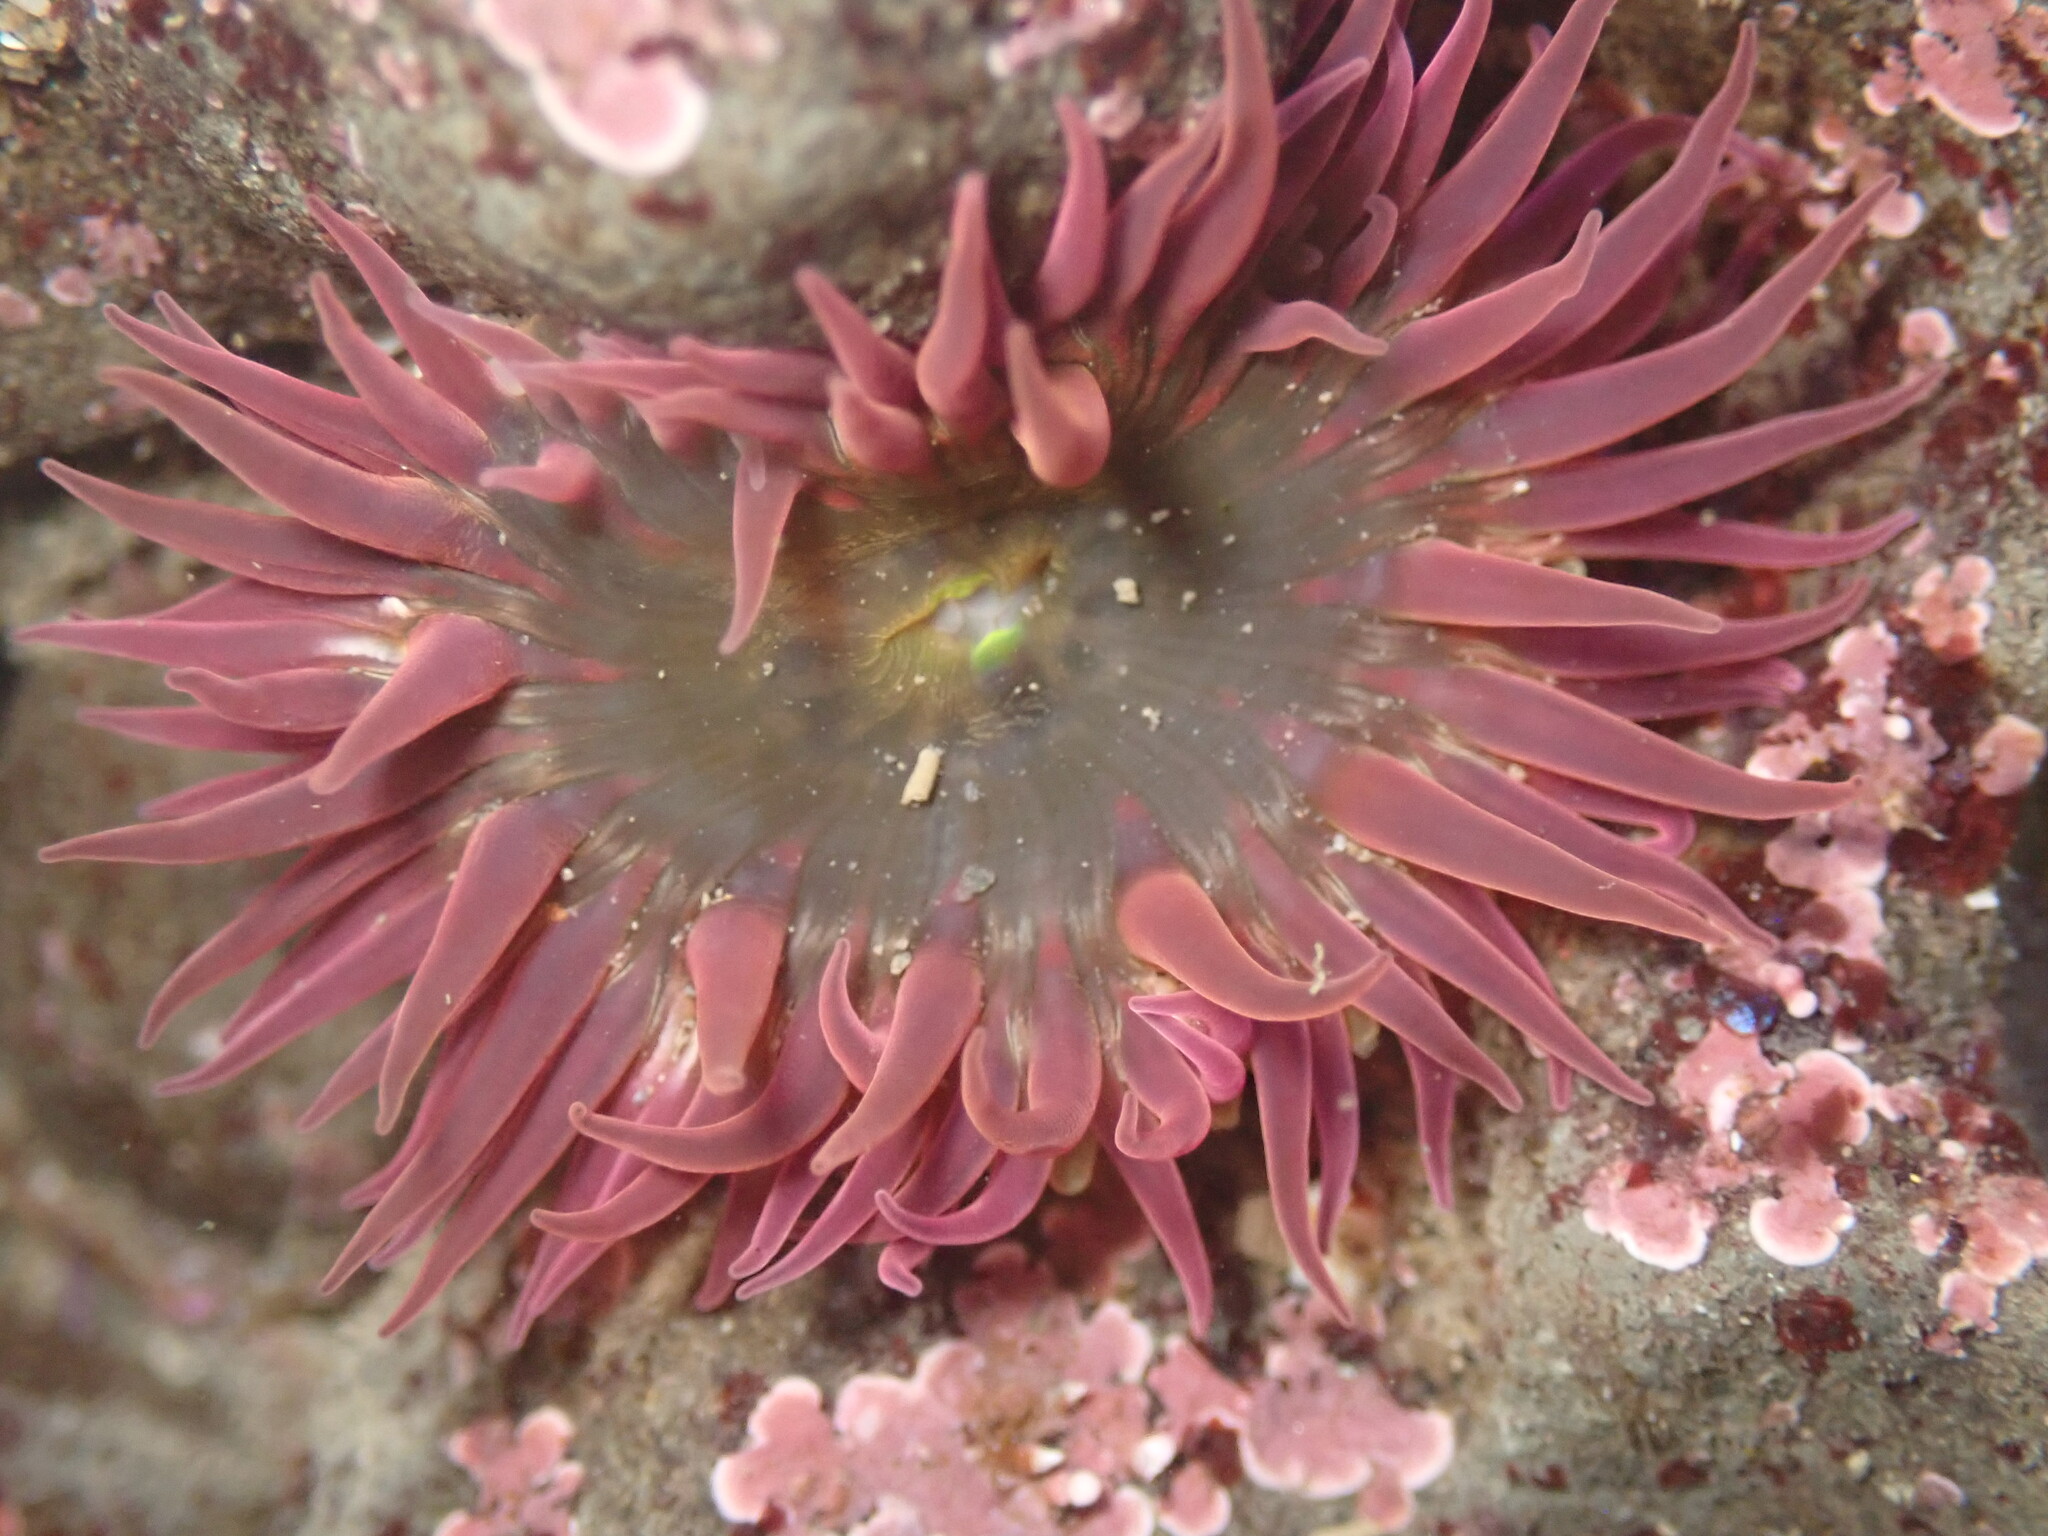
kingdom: Animalia
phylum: Cnidaria
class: Anthozoa
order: Actiniaria
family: Actiniidae
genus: Anthopleura
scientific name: Anthopleura artemisia
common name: Buried sea anemone
